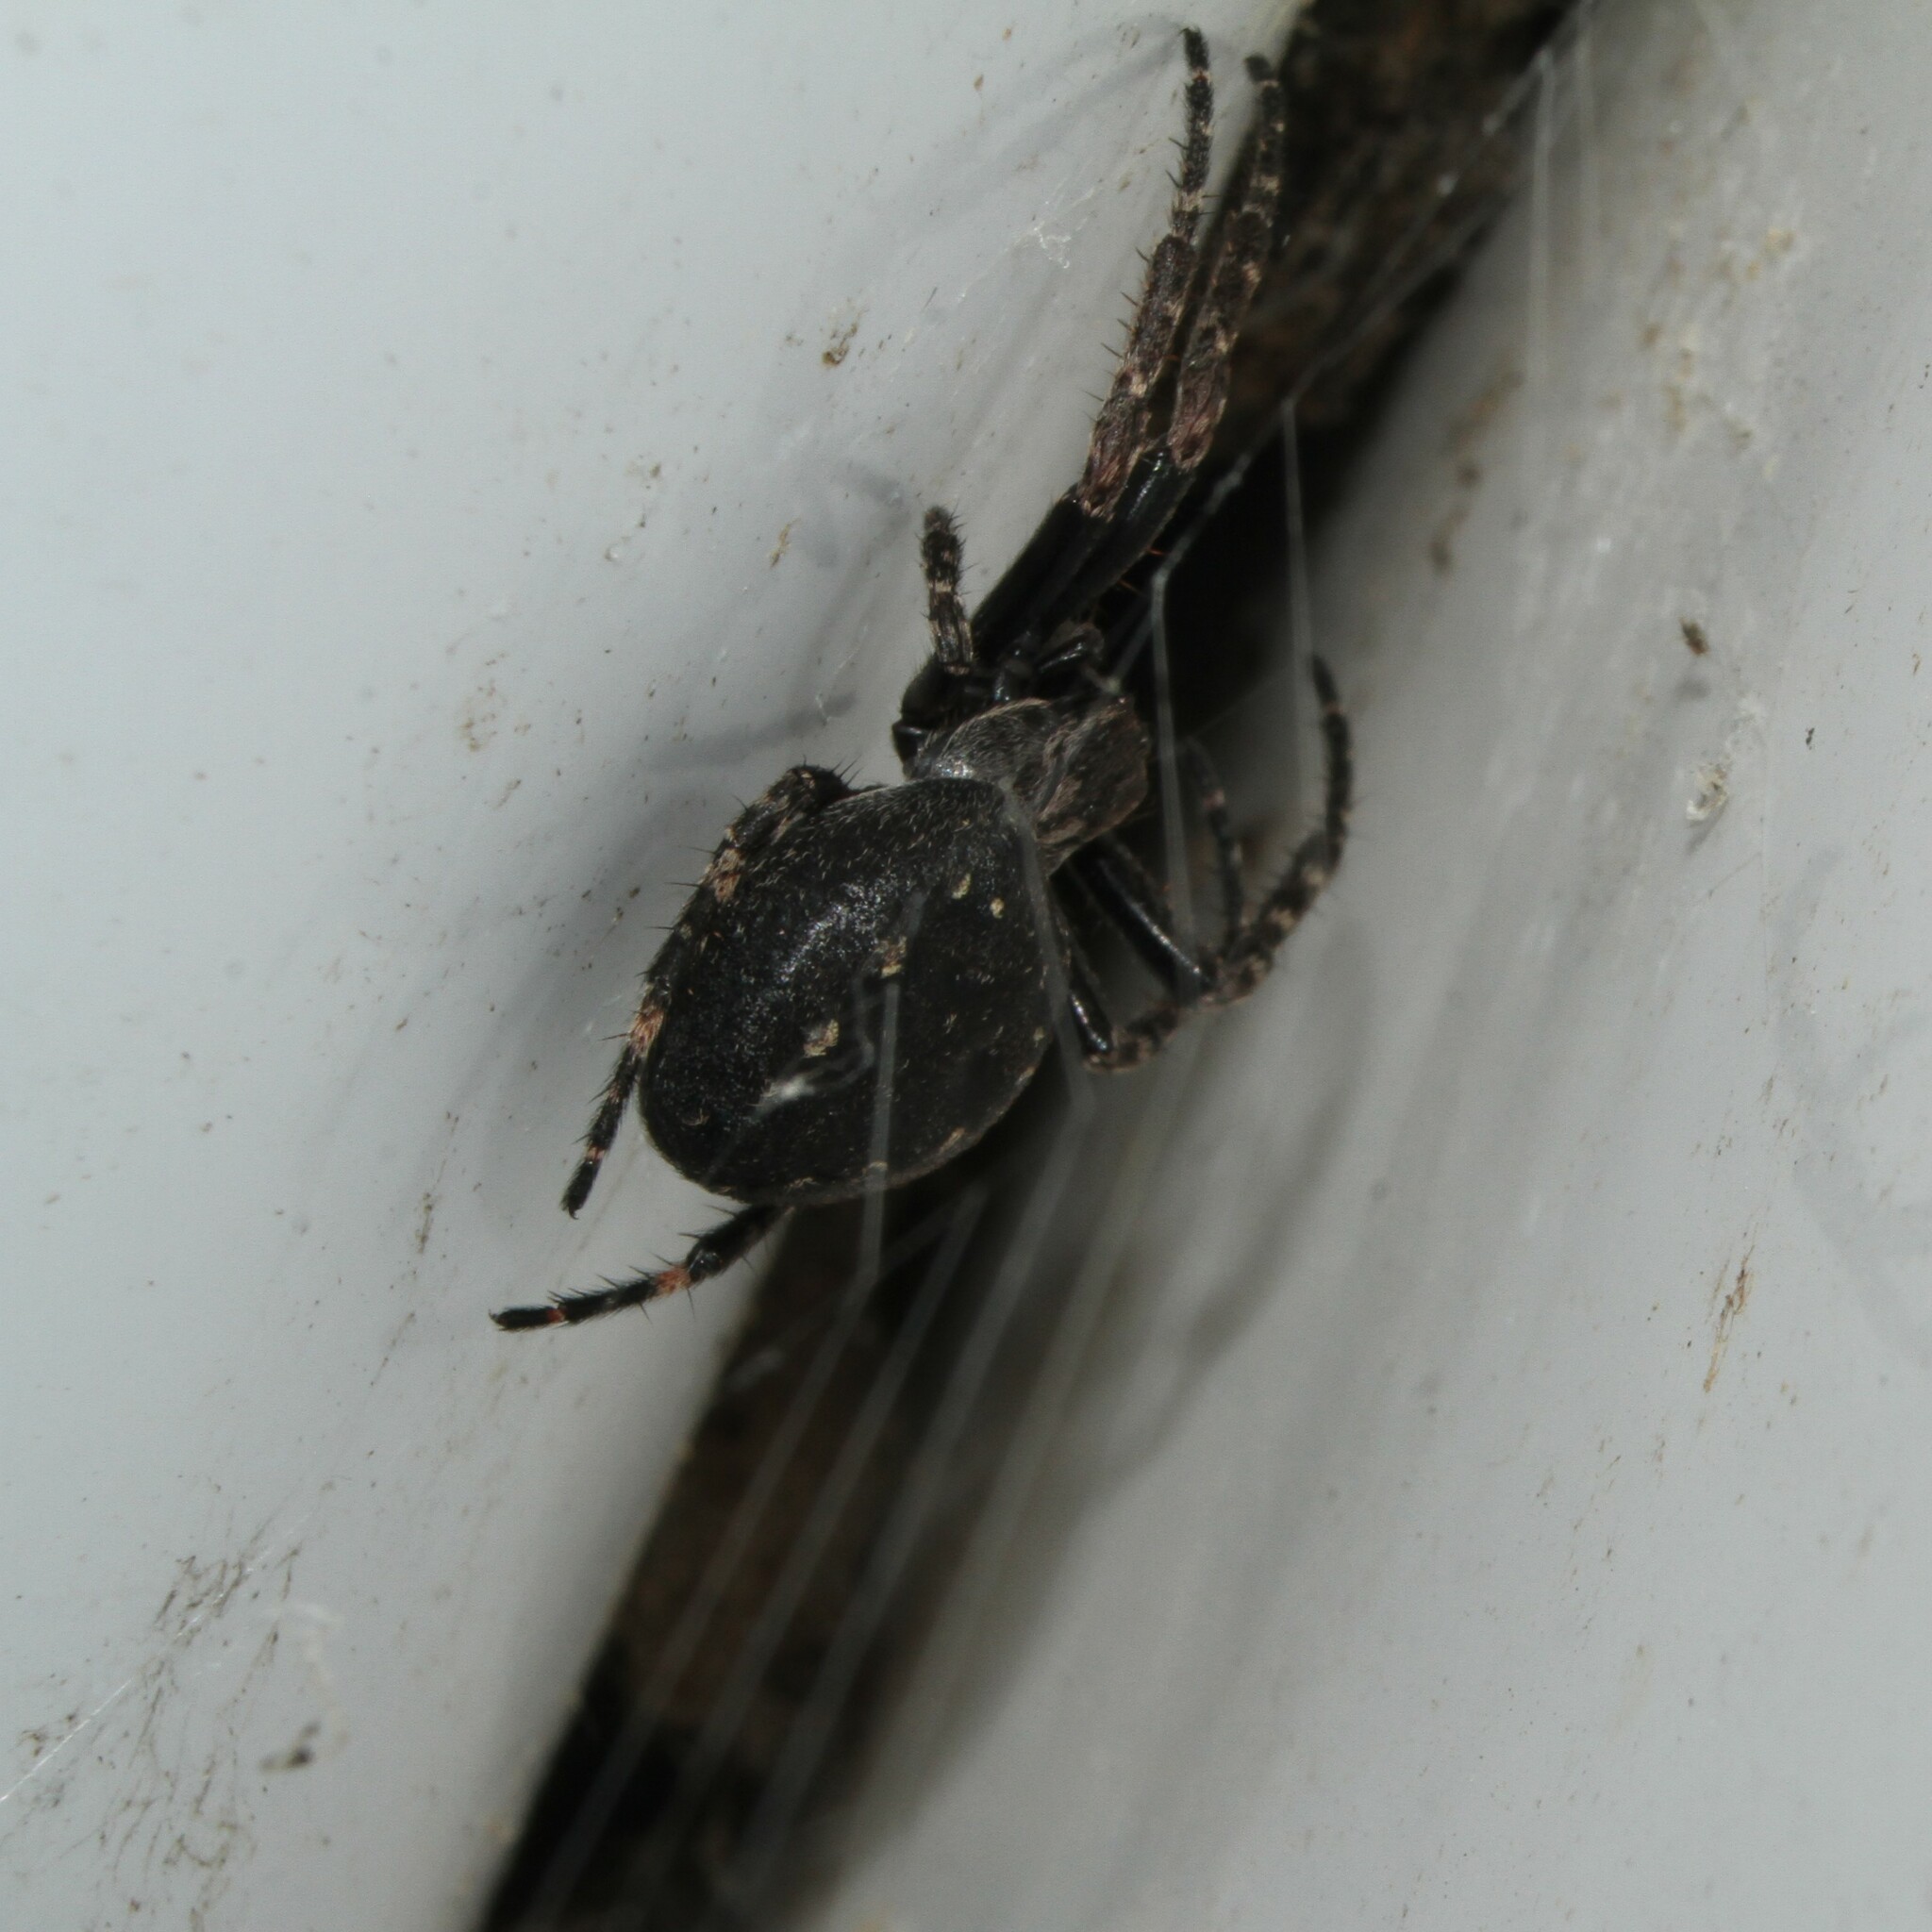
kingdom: Animalia
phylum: Arthropoda
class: Arachnida
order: Araneae
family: Araneidae
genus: Nuctenea
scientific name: Nuctenea umbratica
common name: Toad spider
